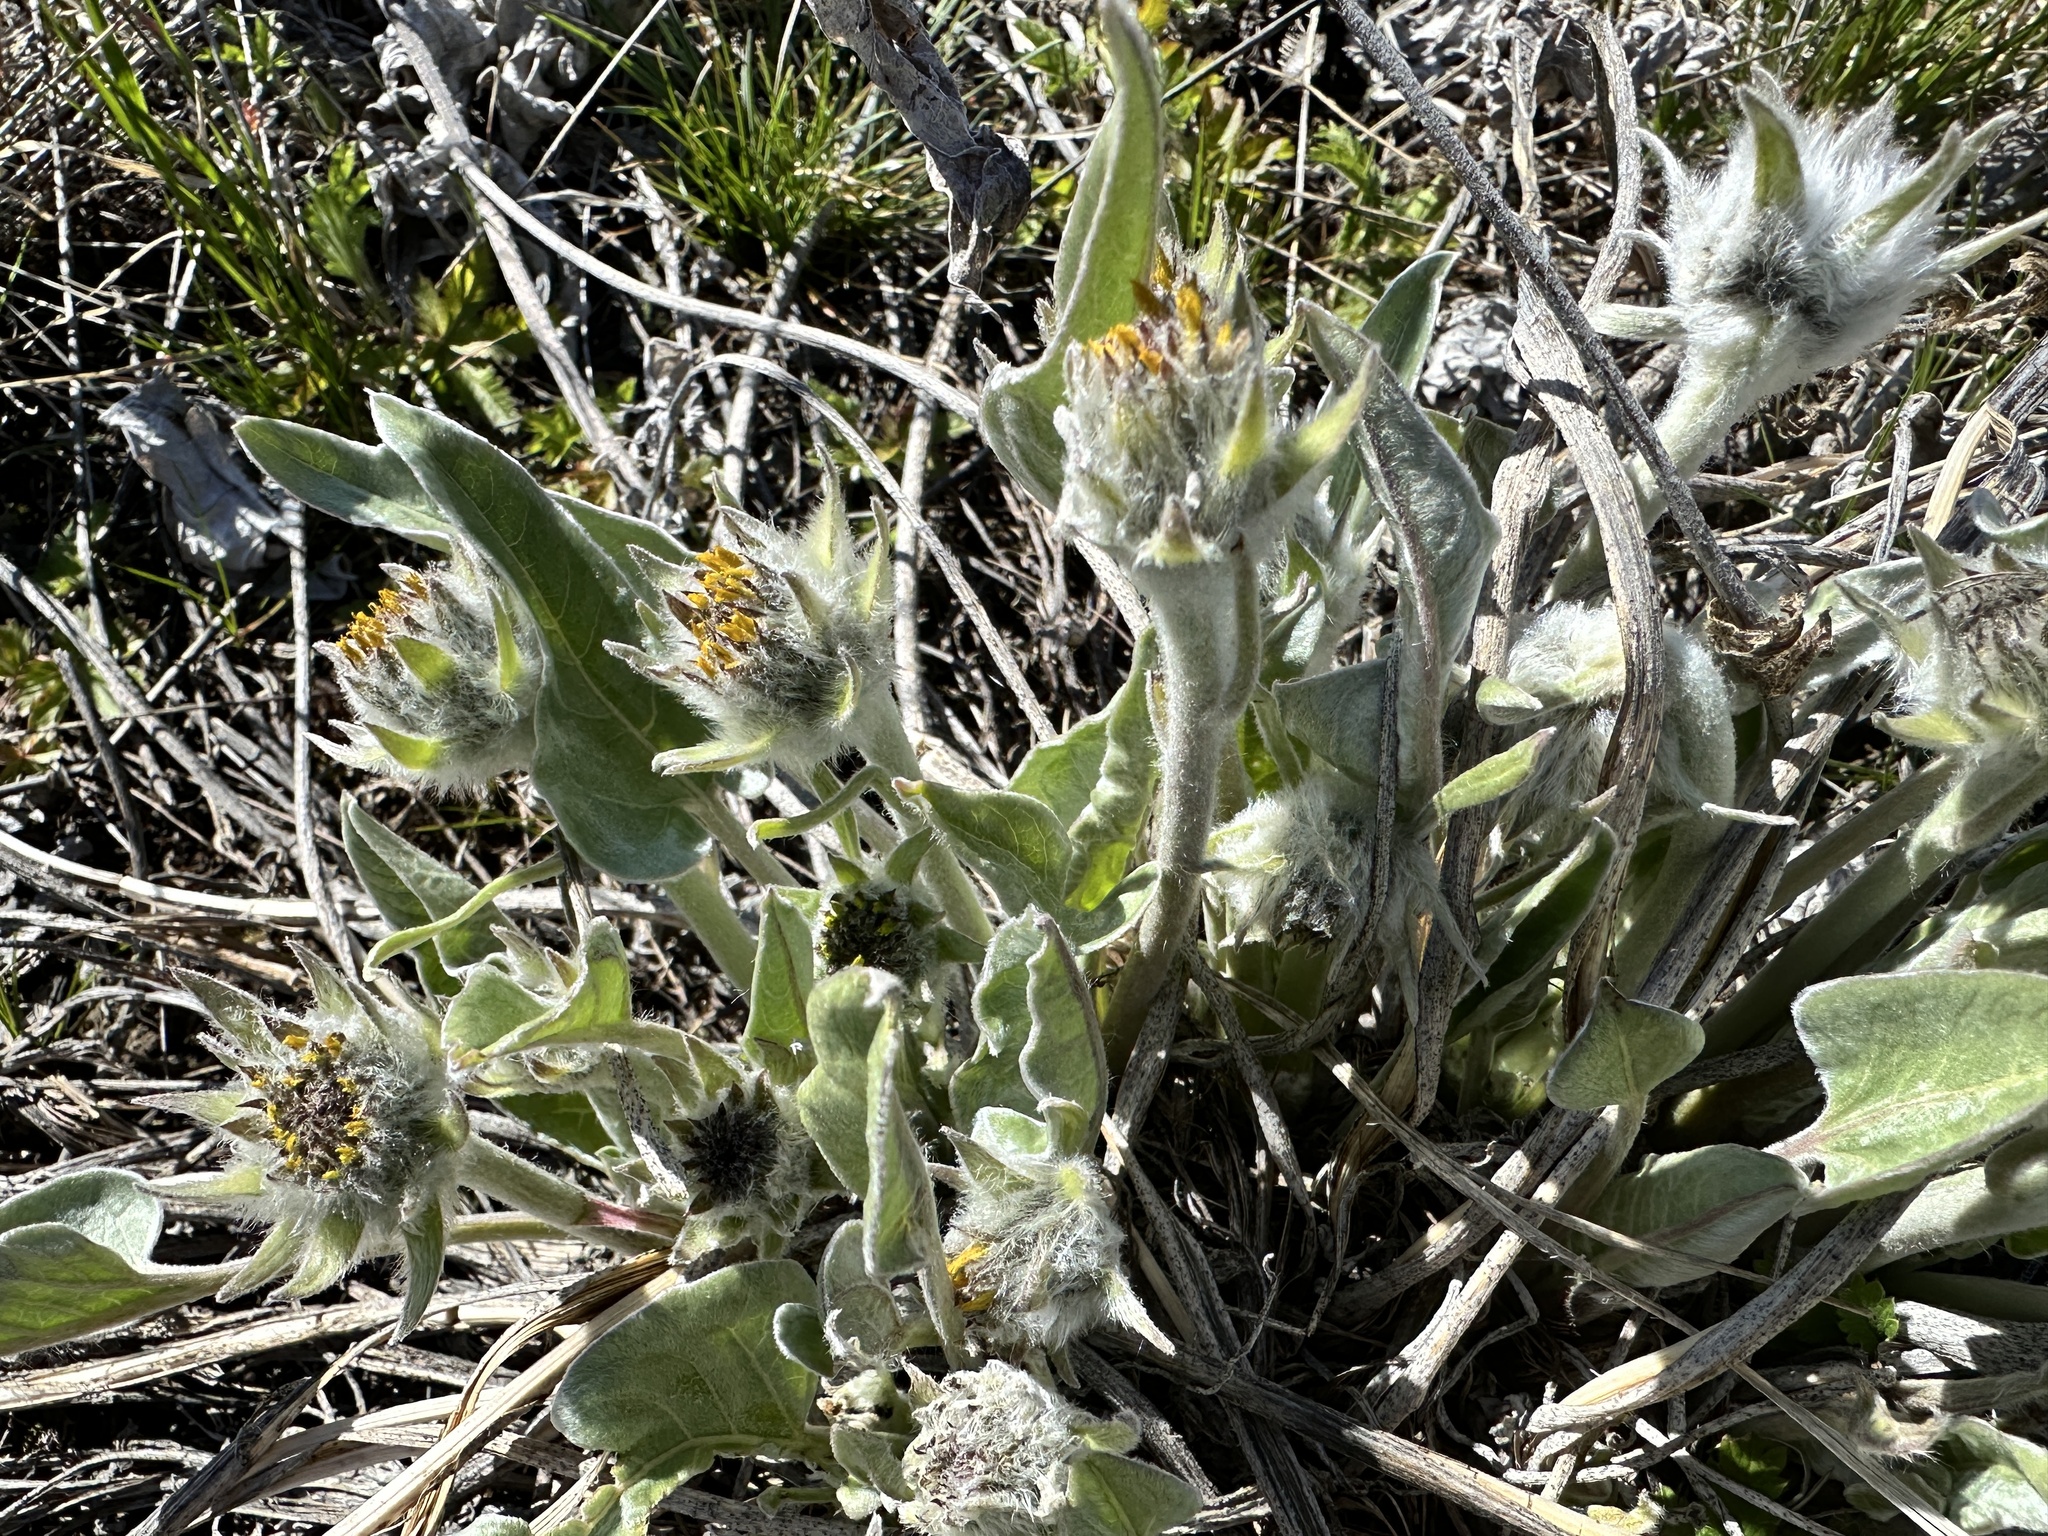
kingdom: Plantae
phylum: Tracheophyta
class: Magnoliopsida
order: Asterales
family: Asteraceae
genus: Wyethia
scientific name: Wyethia sagittata
